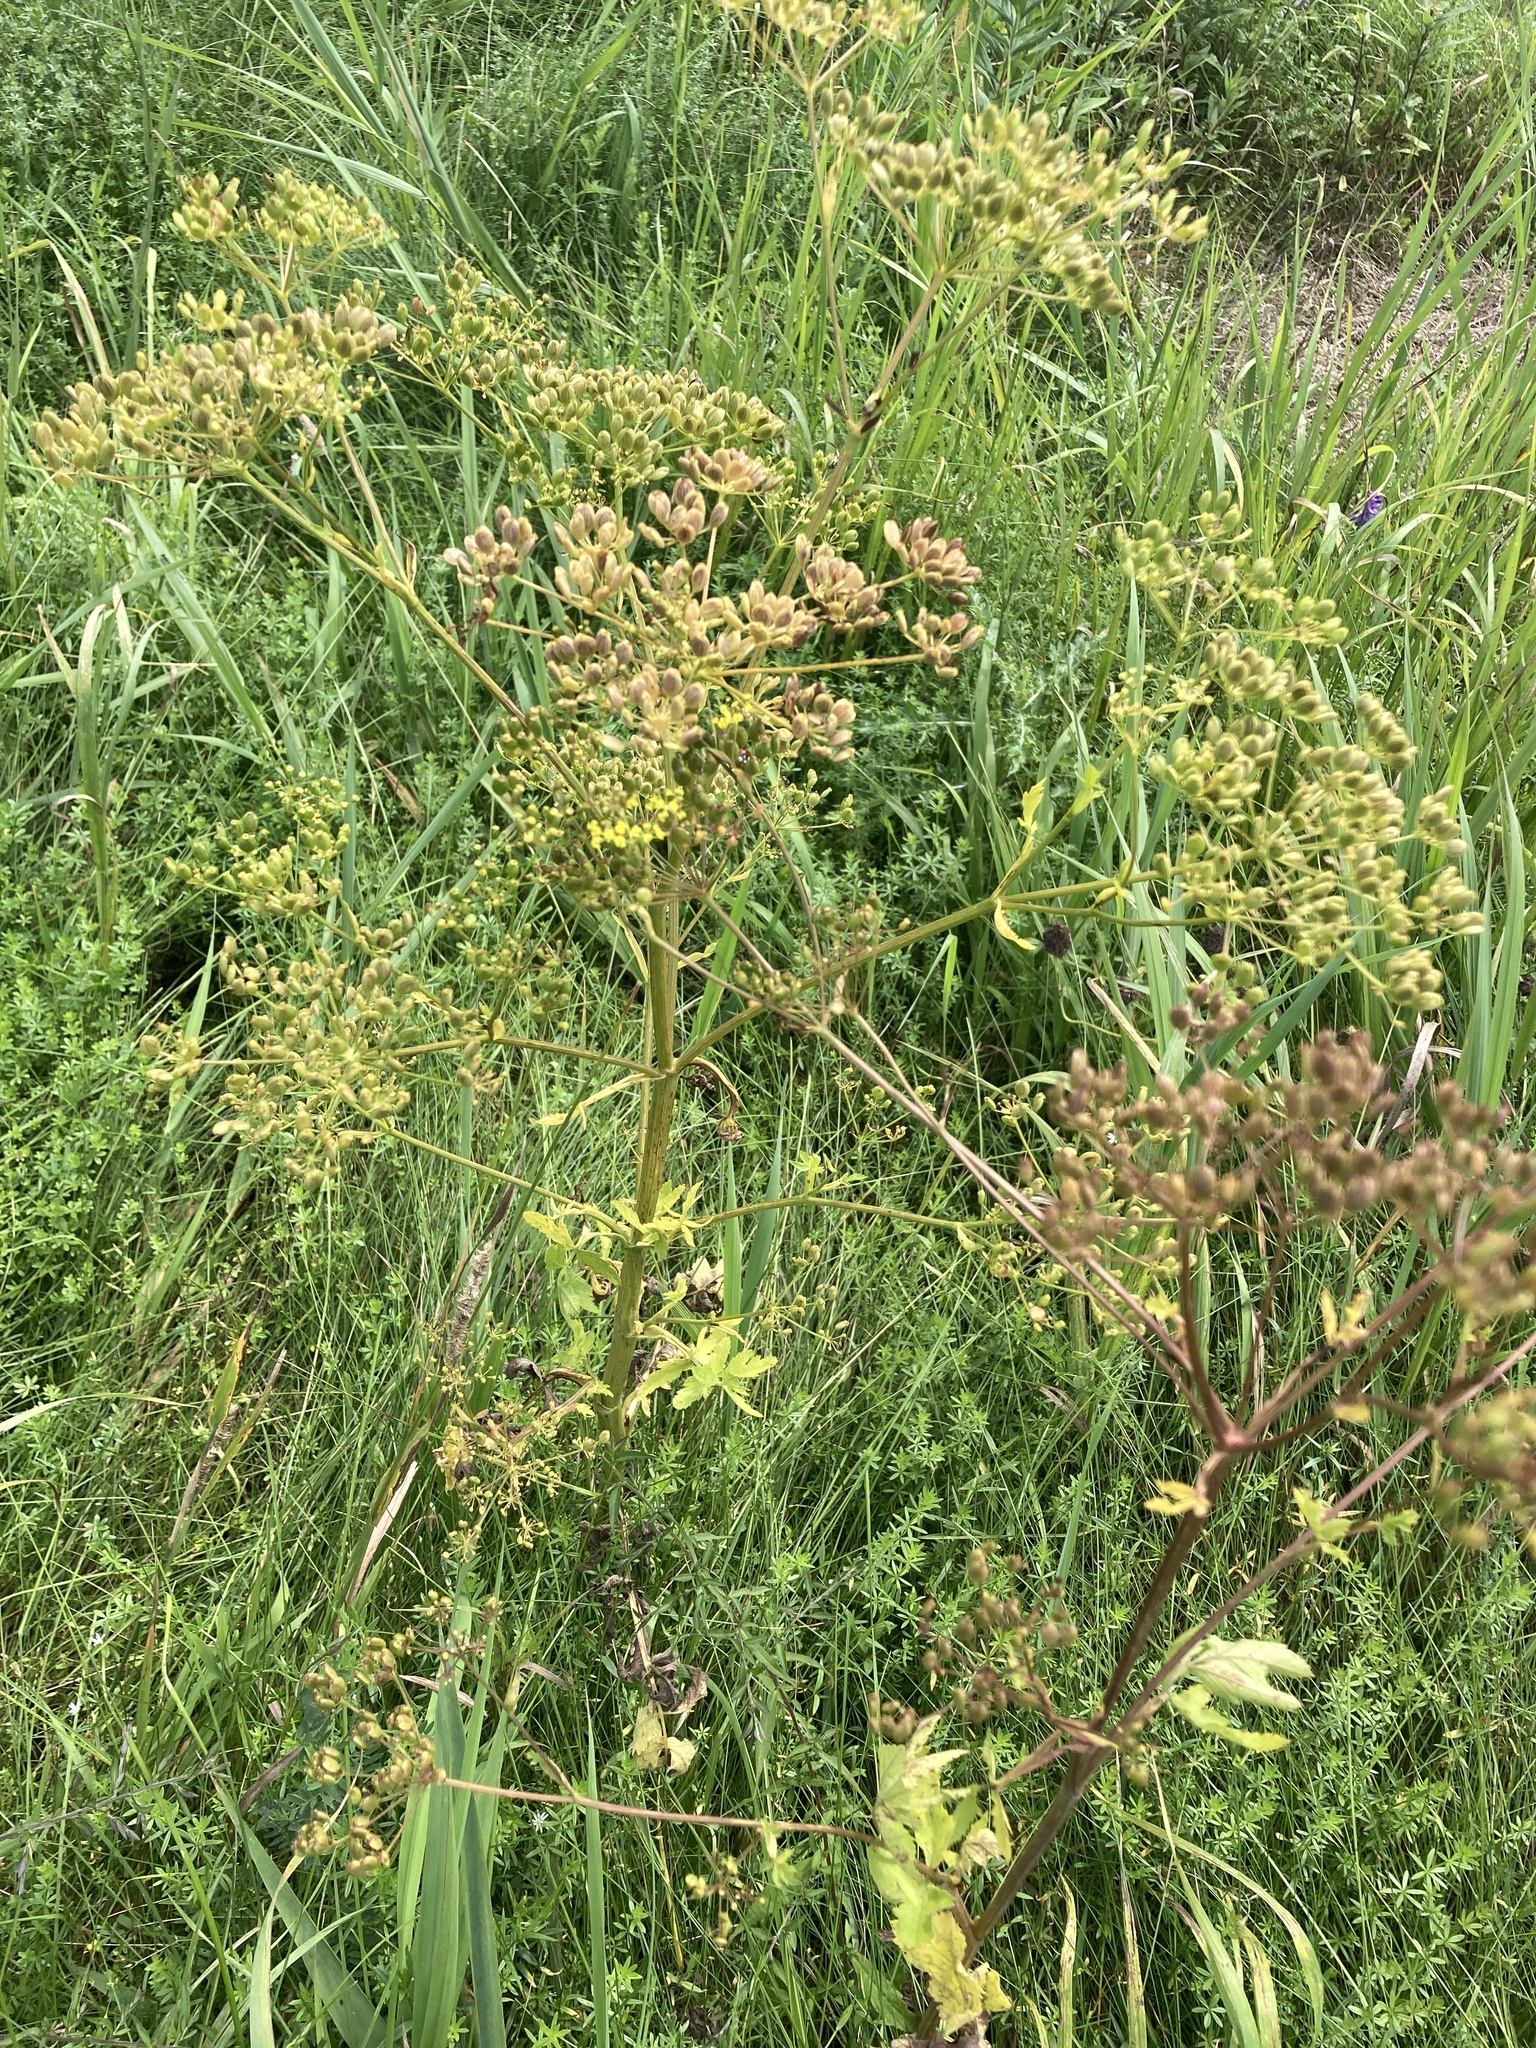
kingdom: Plantae
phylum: Tracheophyta
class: Magnoliopsida
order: Apiales
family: Apiaceae
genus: Pastinaca
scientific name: Pastinaca sativa
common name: Wild parsnip
